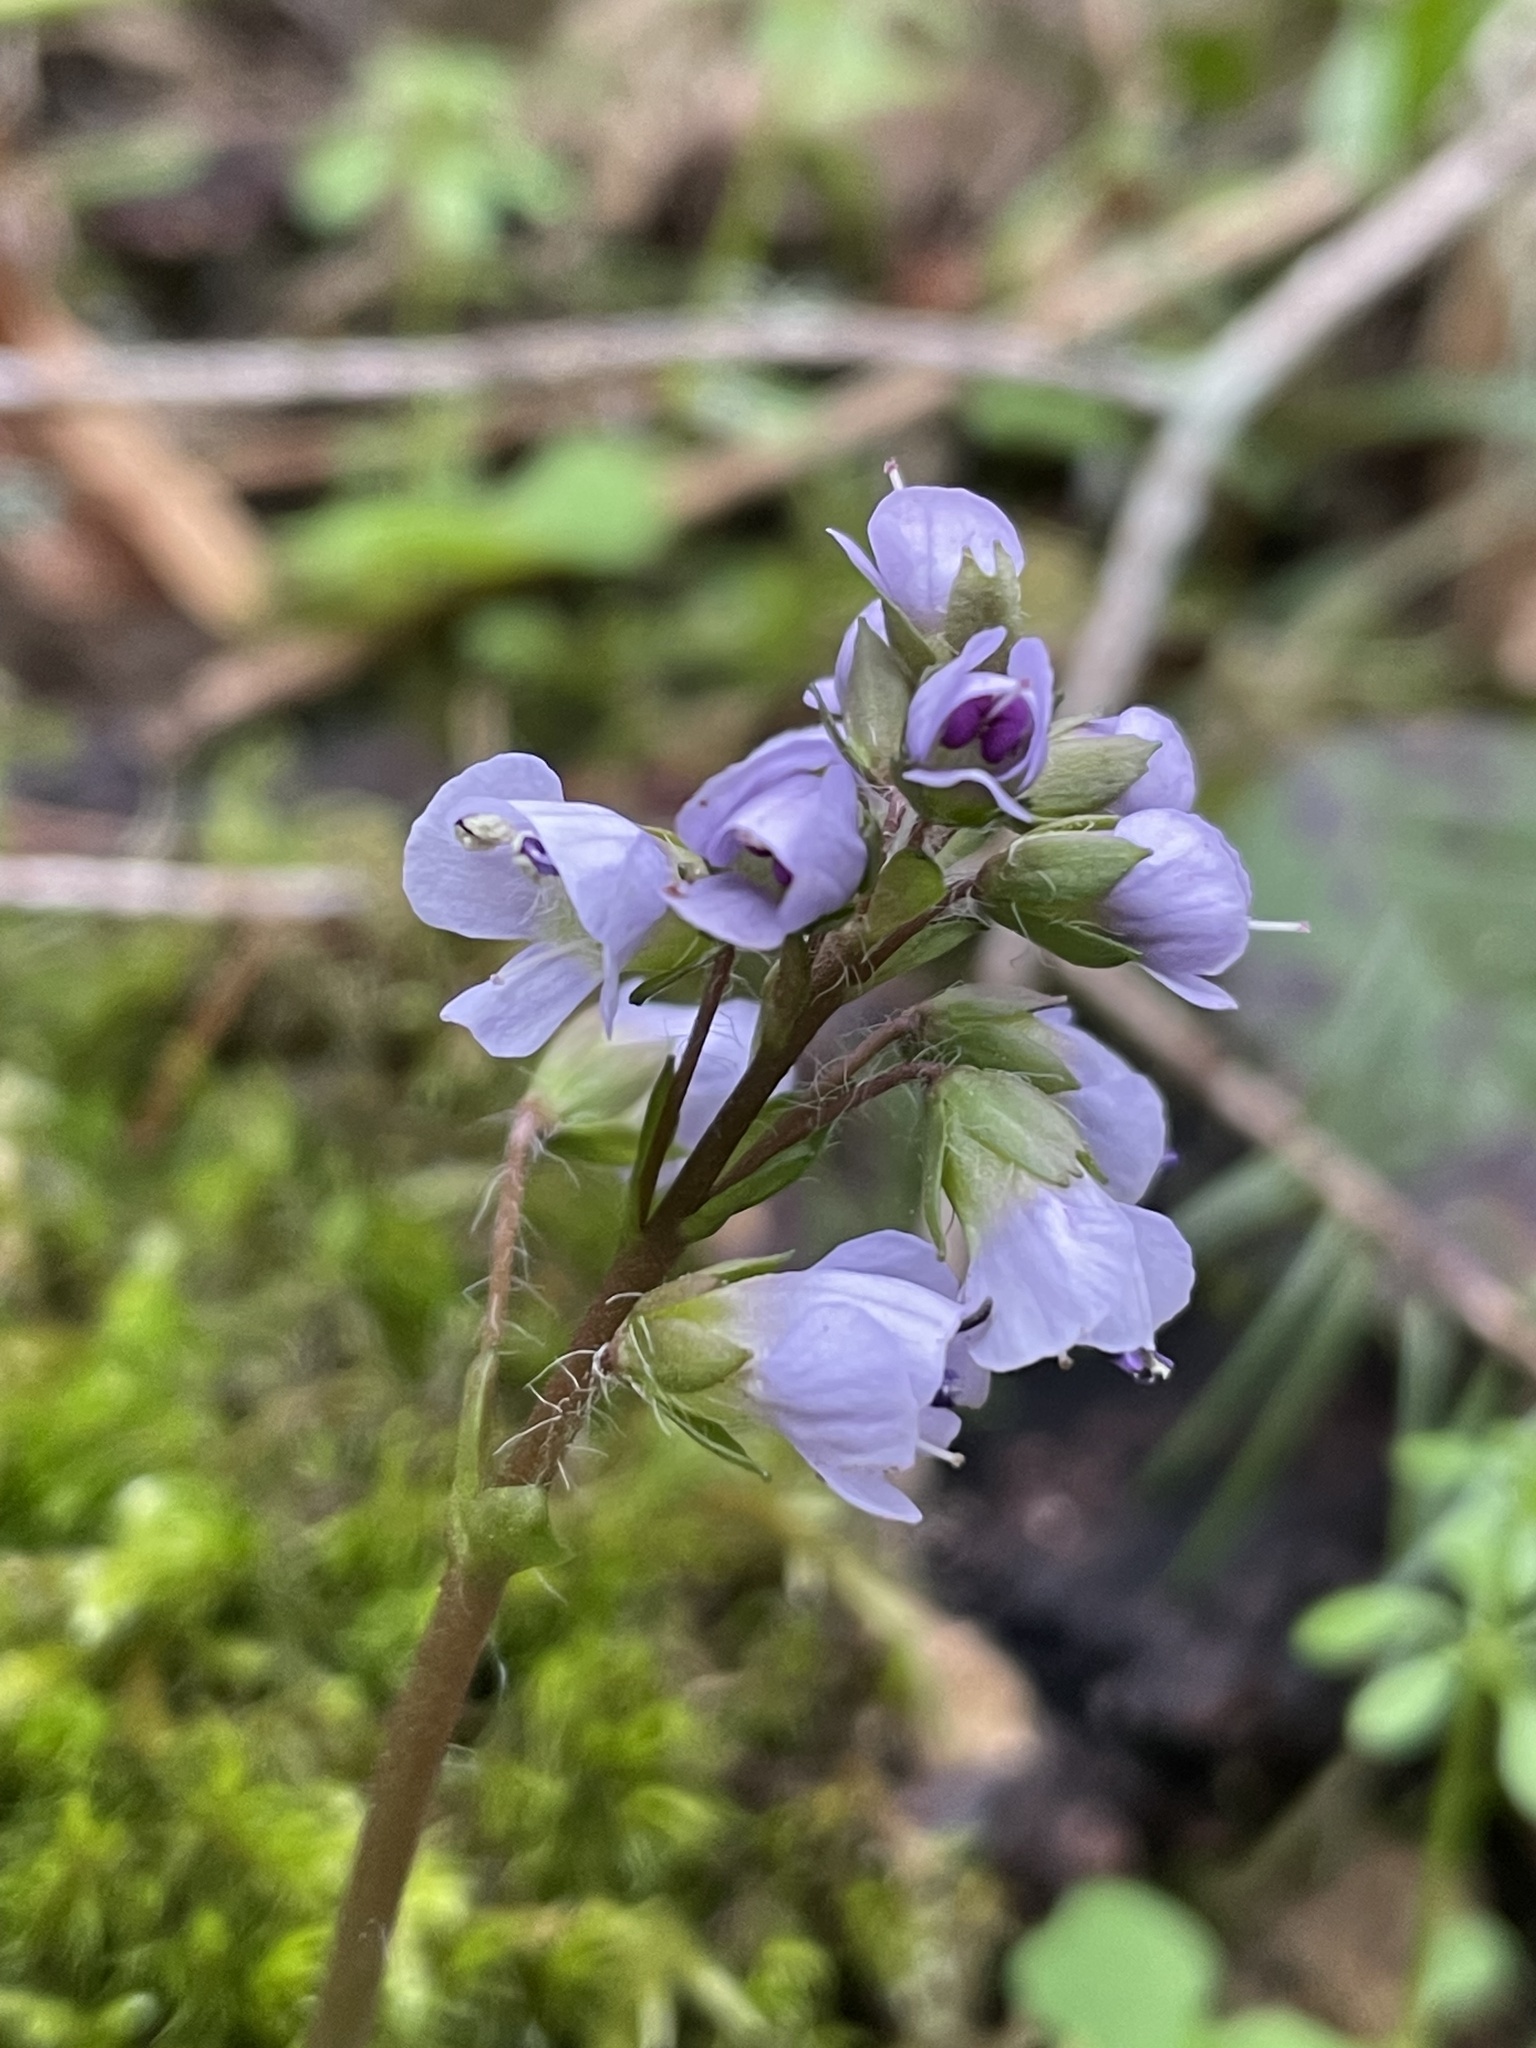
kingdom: Plantae
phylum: Tracheophyta
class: Magnoliopsida
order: Lamiales
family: Plantaginaceae
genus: Synthyris
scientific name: Synthyris reniformis
